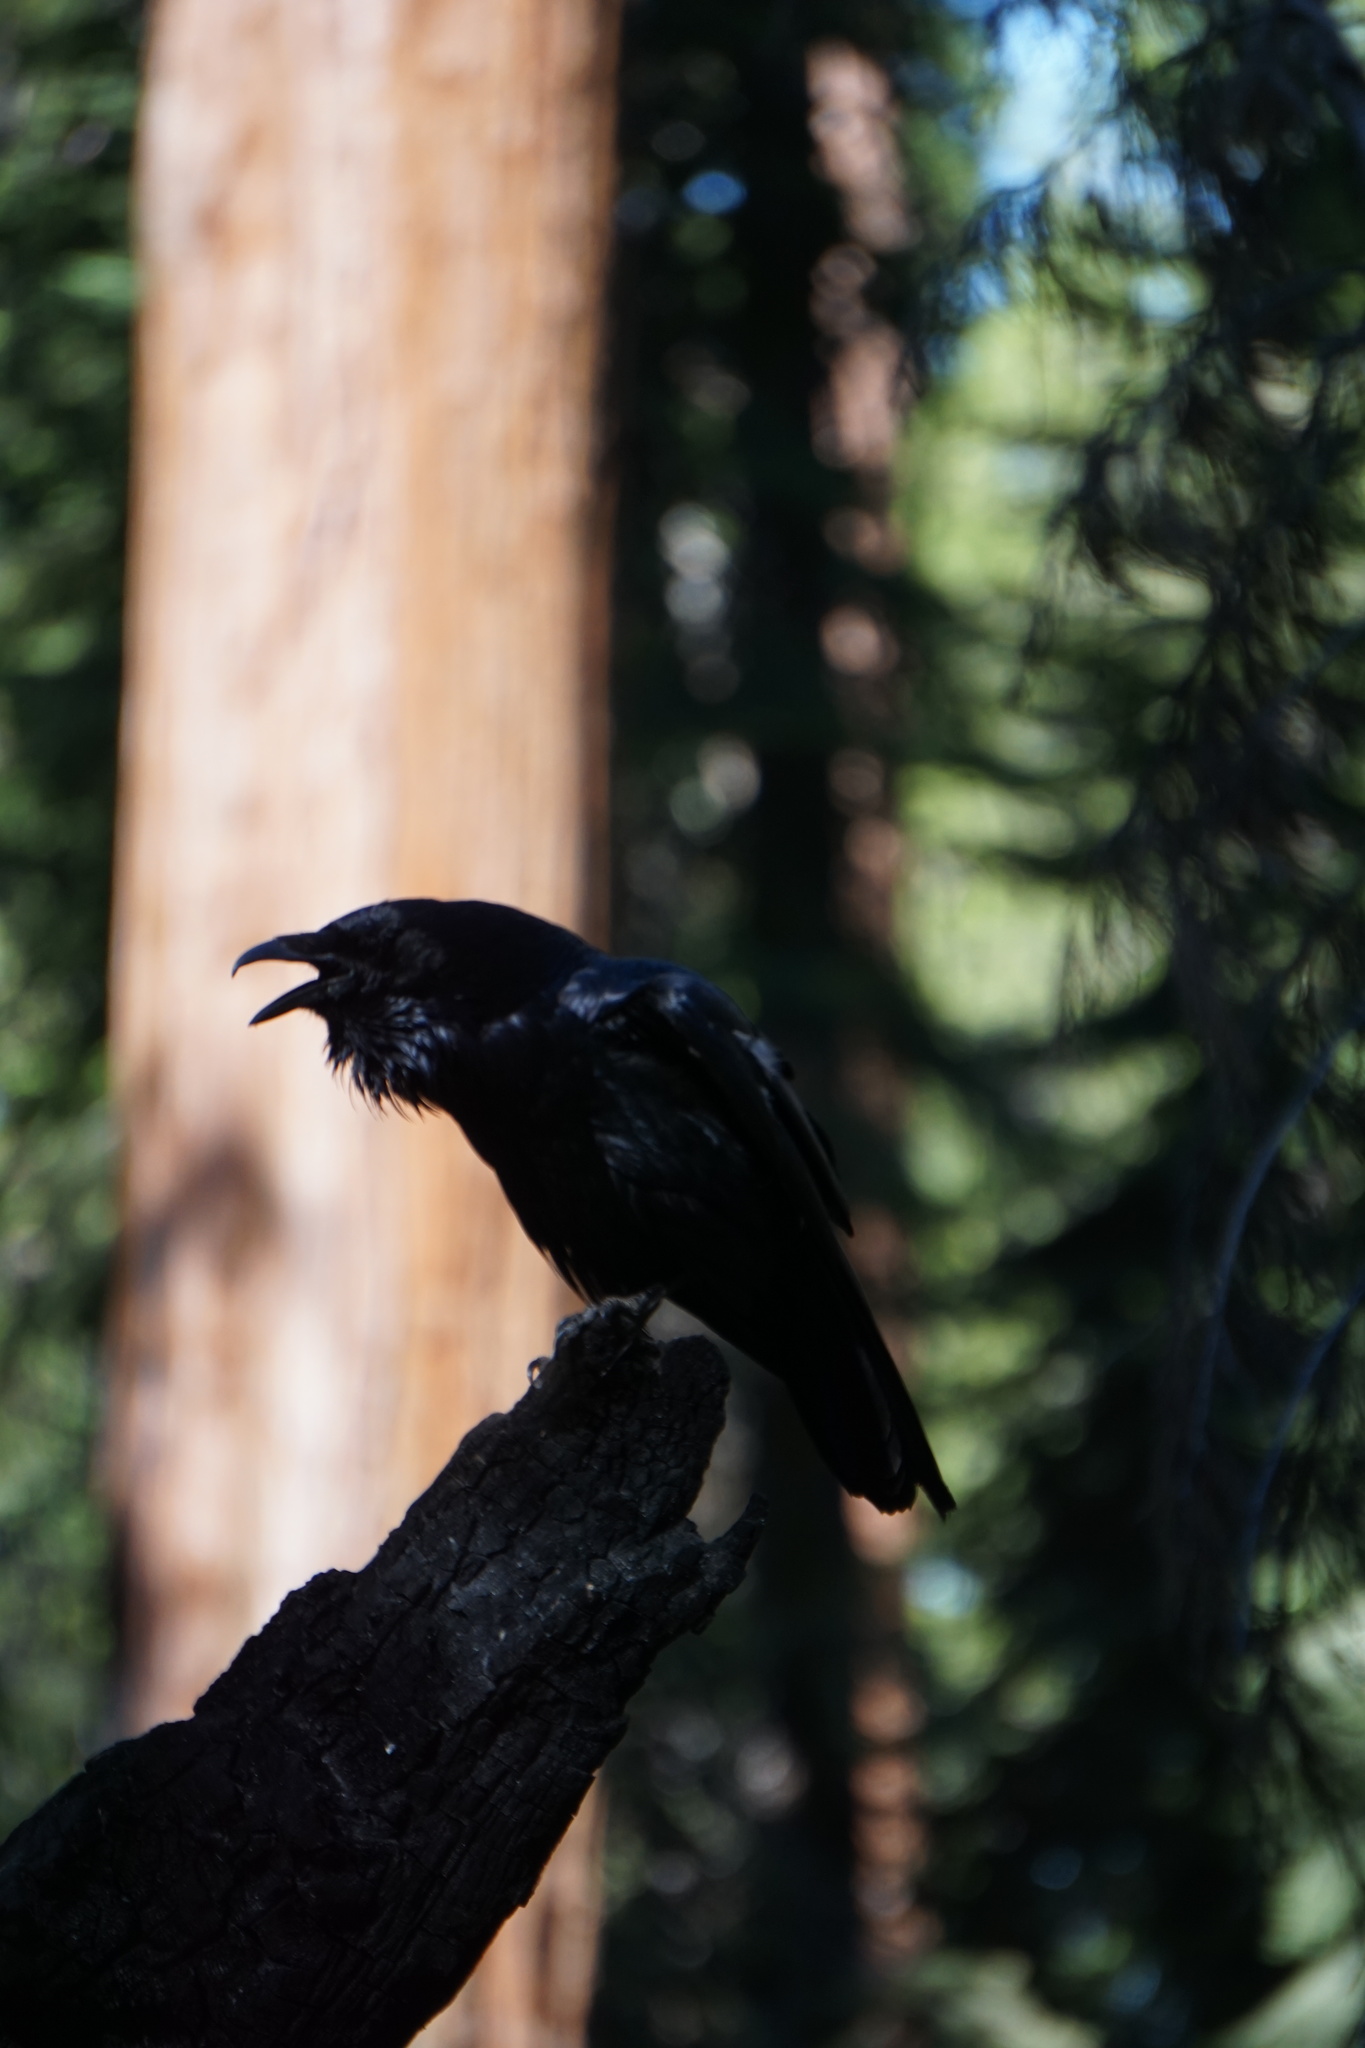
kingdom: Animalia
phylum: Chordata
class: Aves
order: Passeriformes
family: Corvidae
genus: Corvus
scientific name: Corvus corax
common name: Common raven
